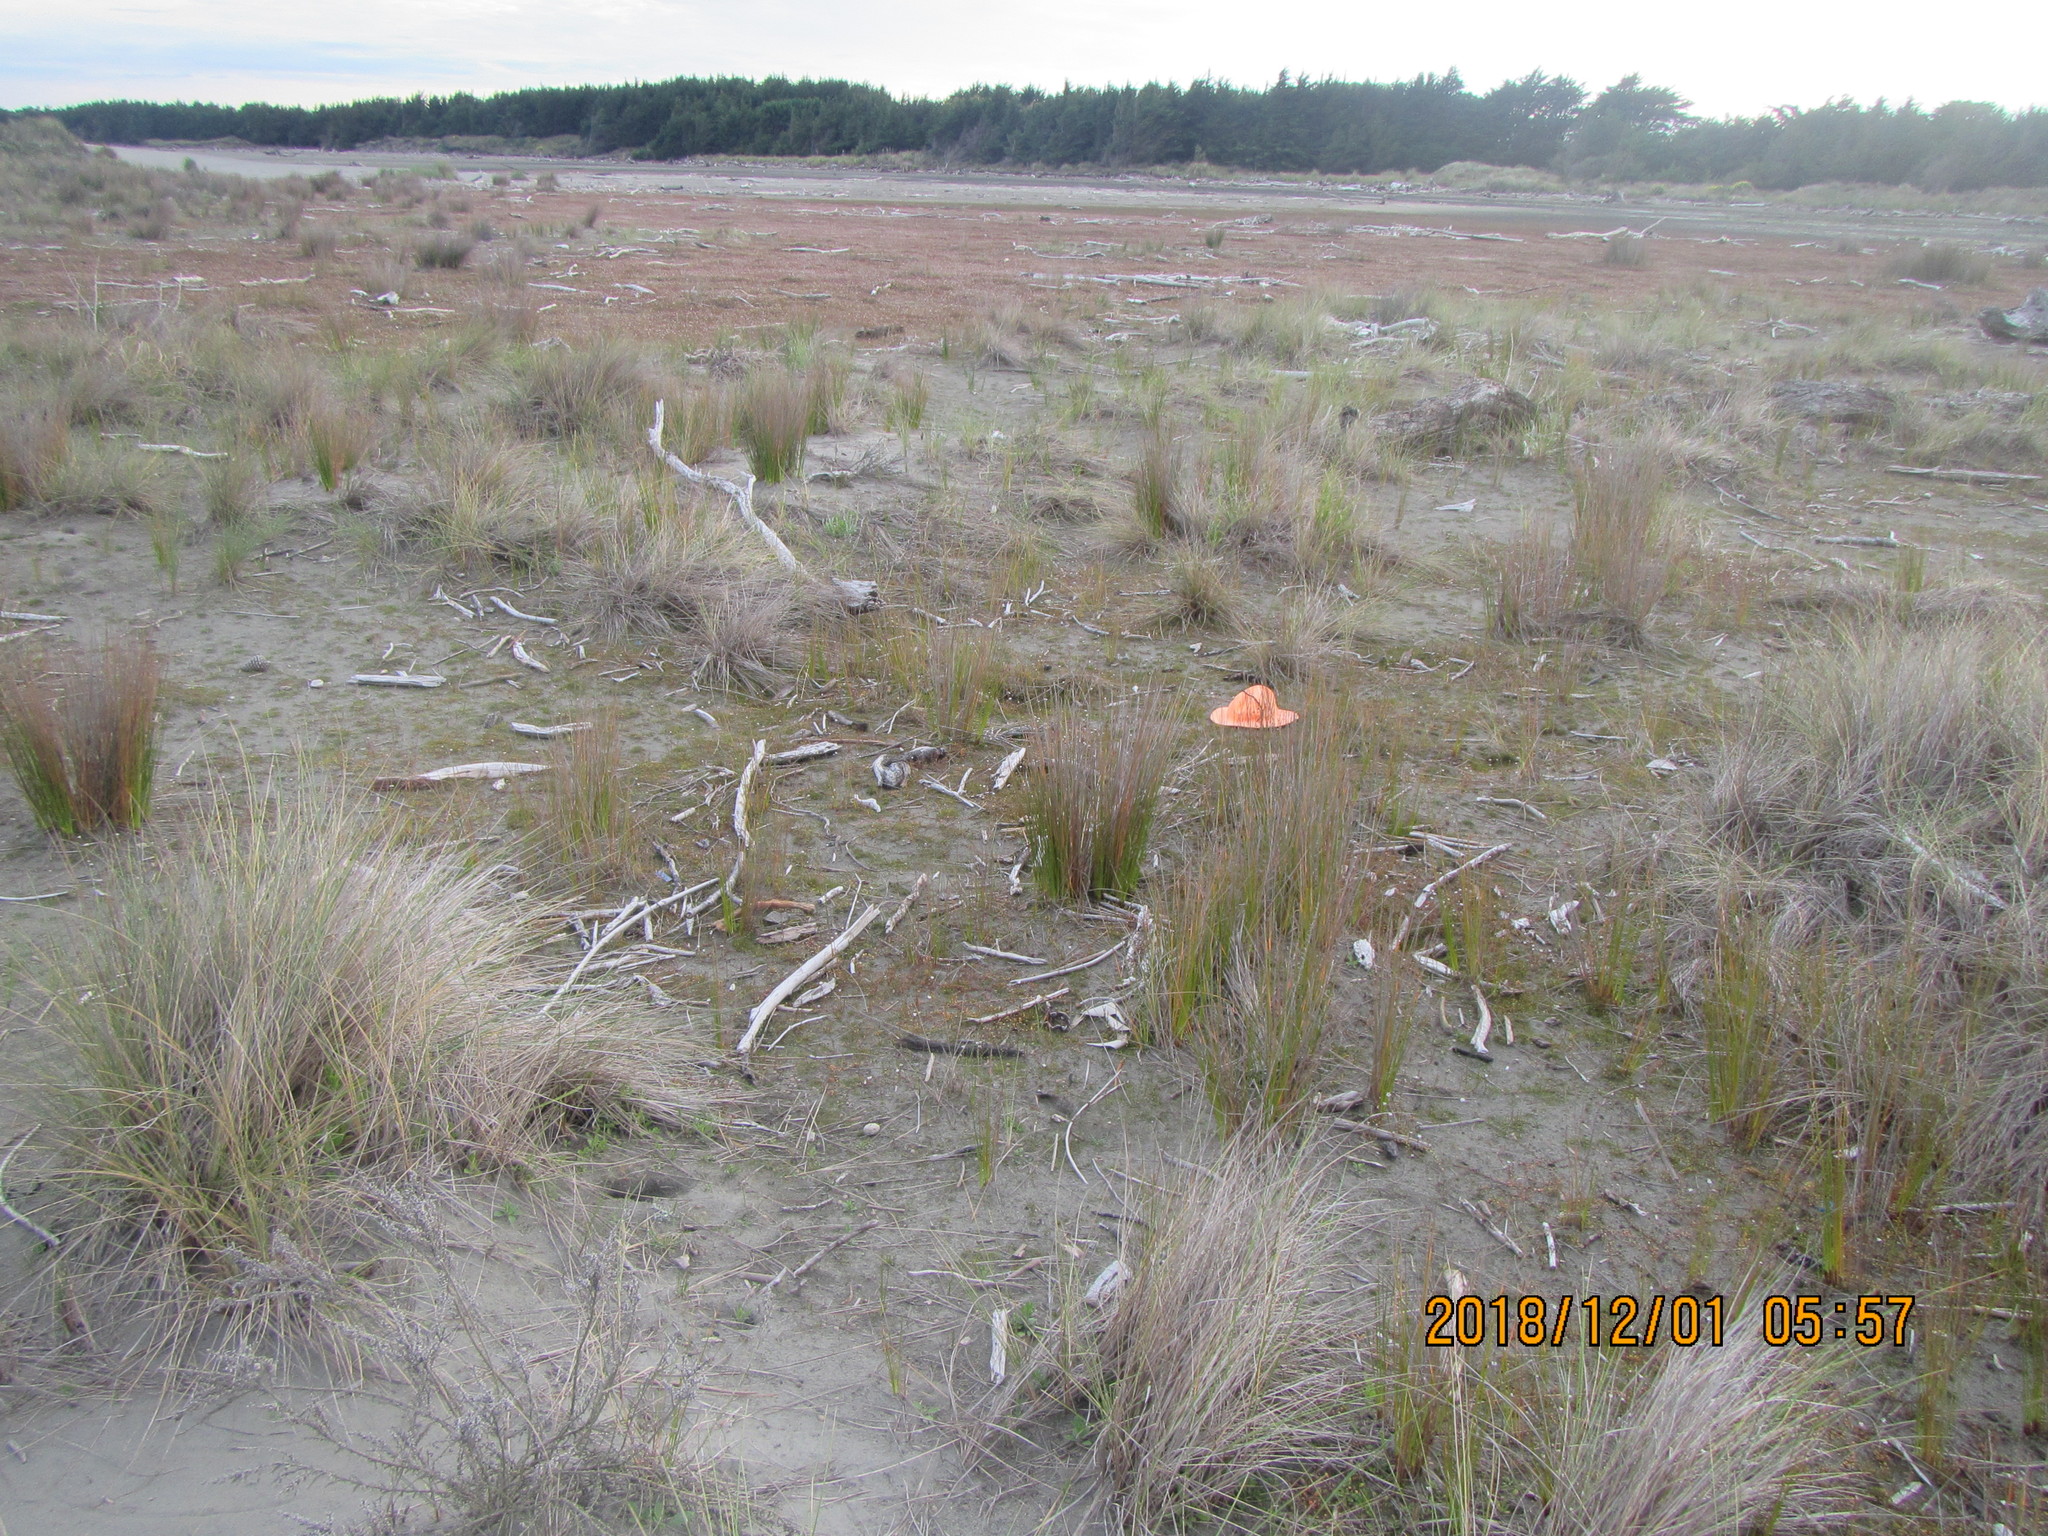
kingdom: Plantae
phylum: Tracheophyta
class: Liliopsida
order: Poales
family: Cyperaceae
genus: Isolepis
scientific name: Isolepis cernua
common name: Slender club-rush
